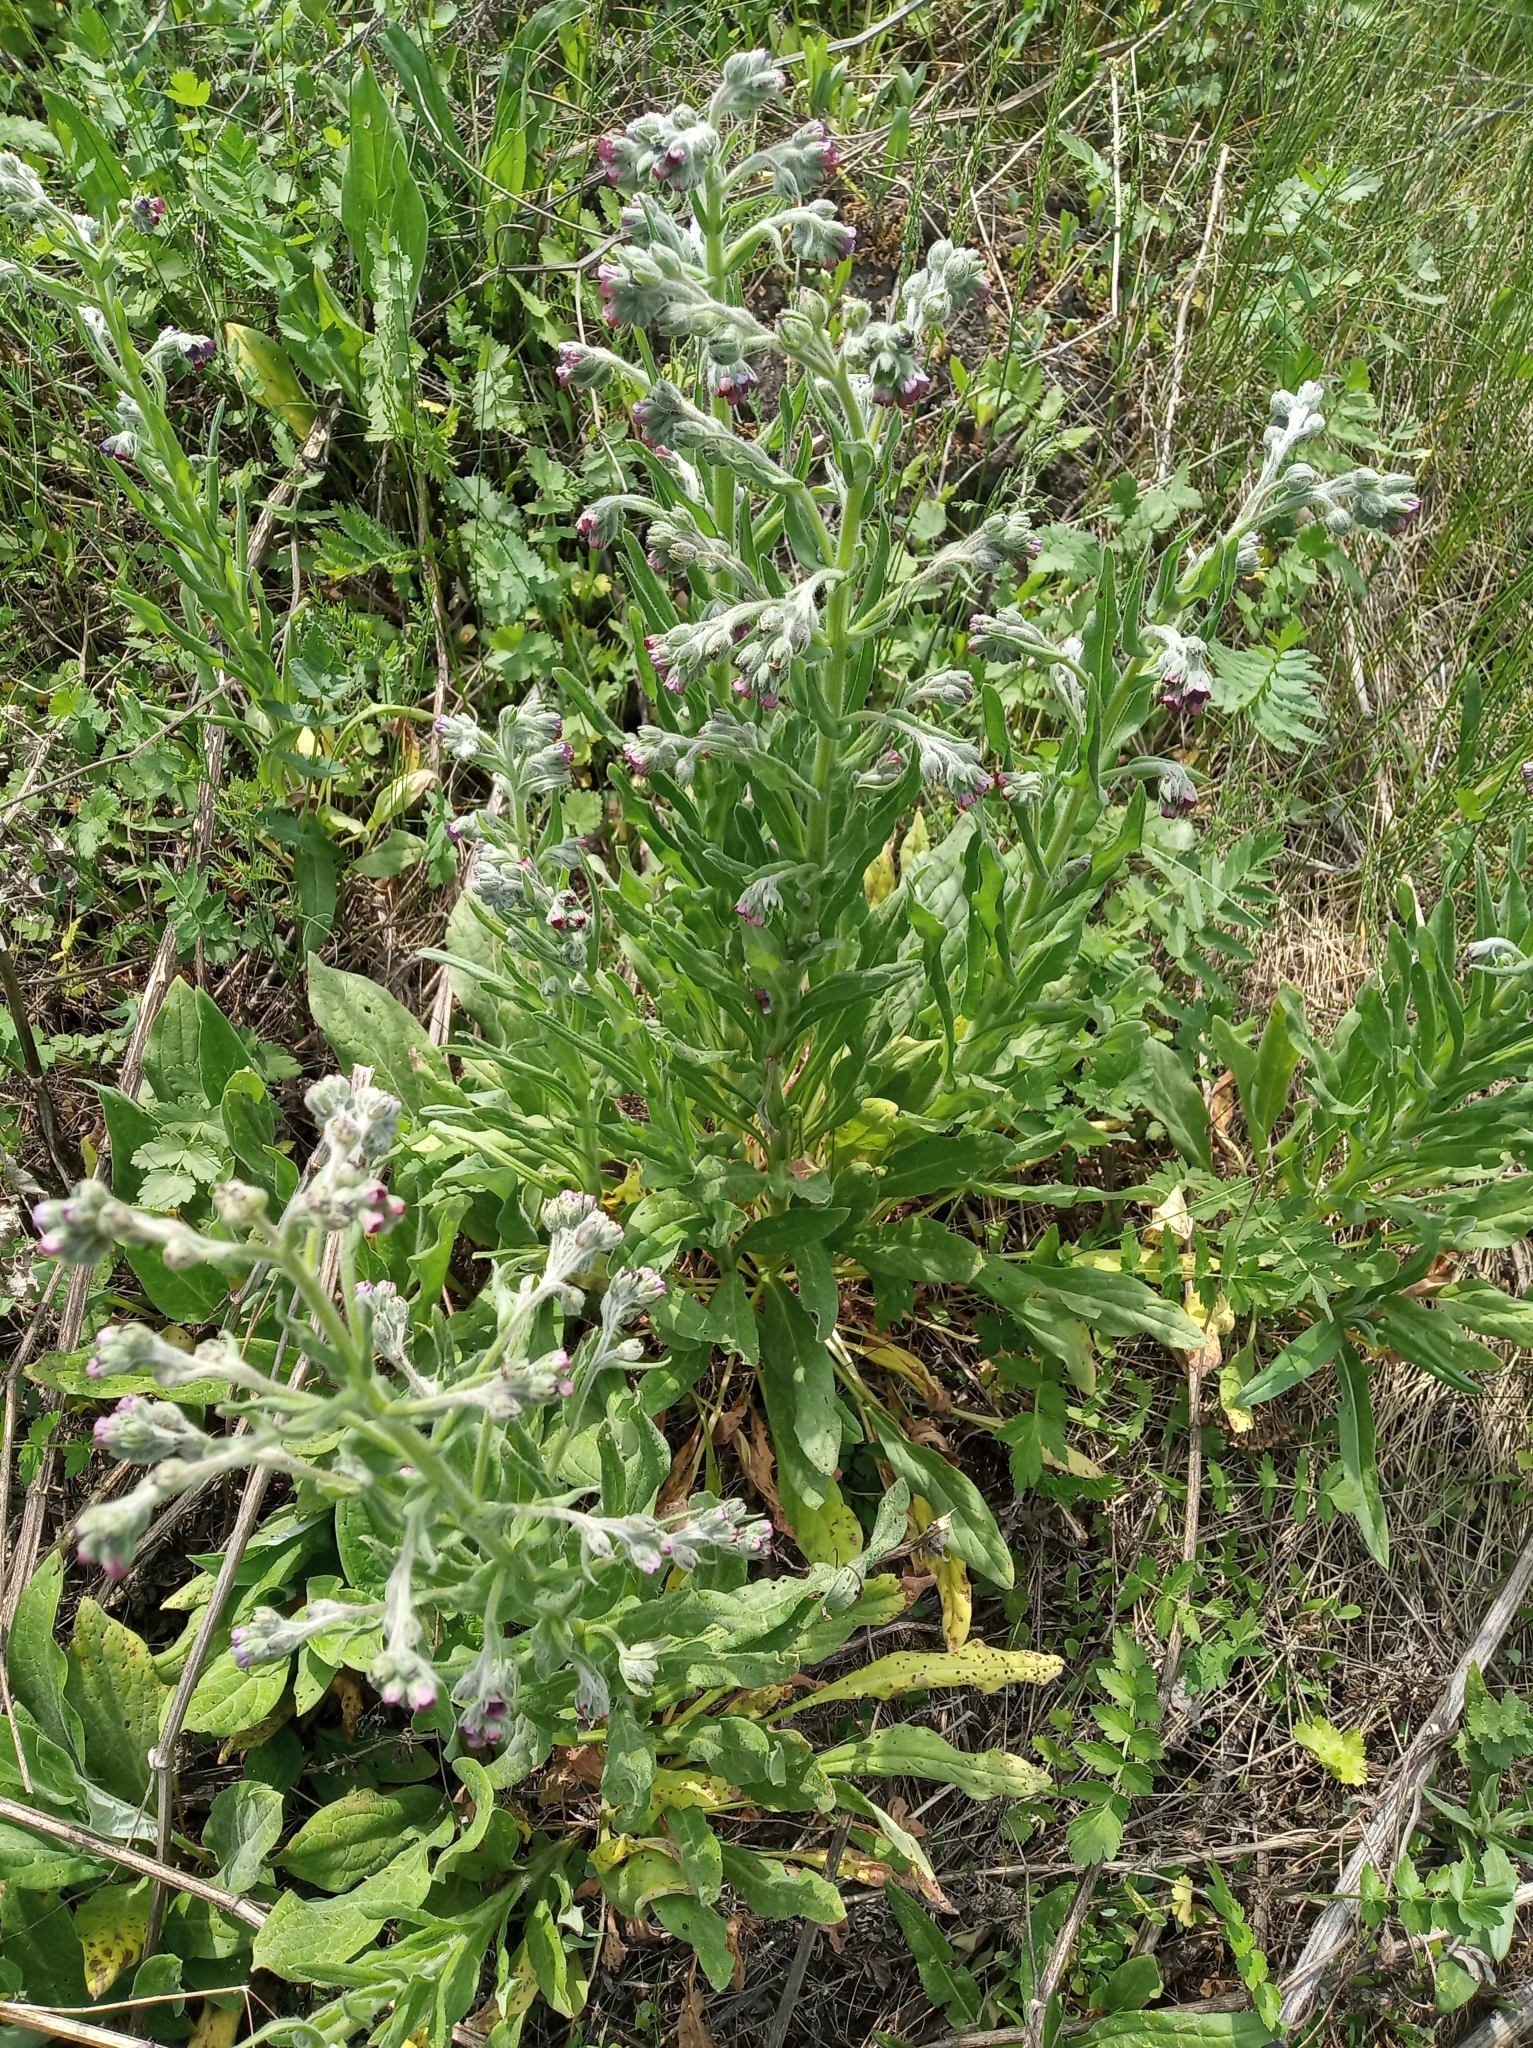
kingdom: Plantae
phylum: Tracheophyta
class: Magnoliopsida
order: Boraginales
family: Boraginaceae
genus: Cynoglossum
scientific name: Cynoglossum officinale
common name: Hound's-tongue
